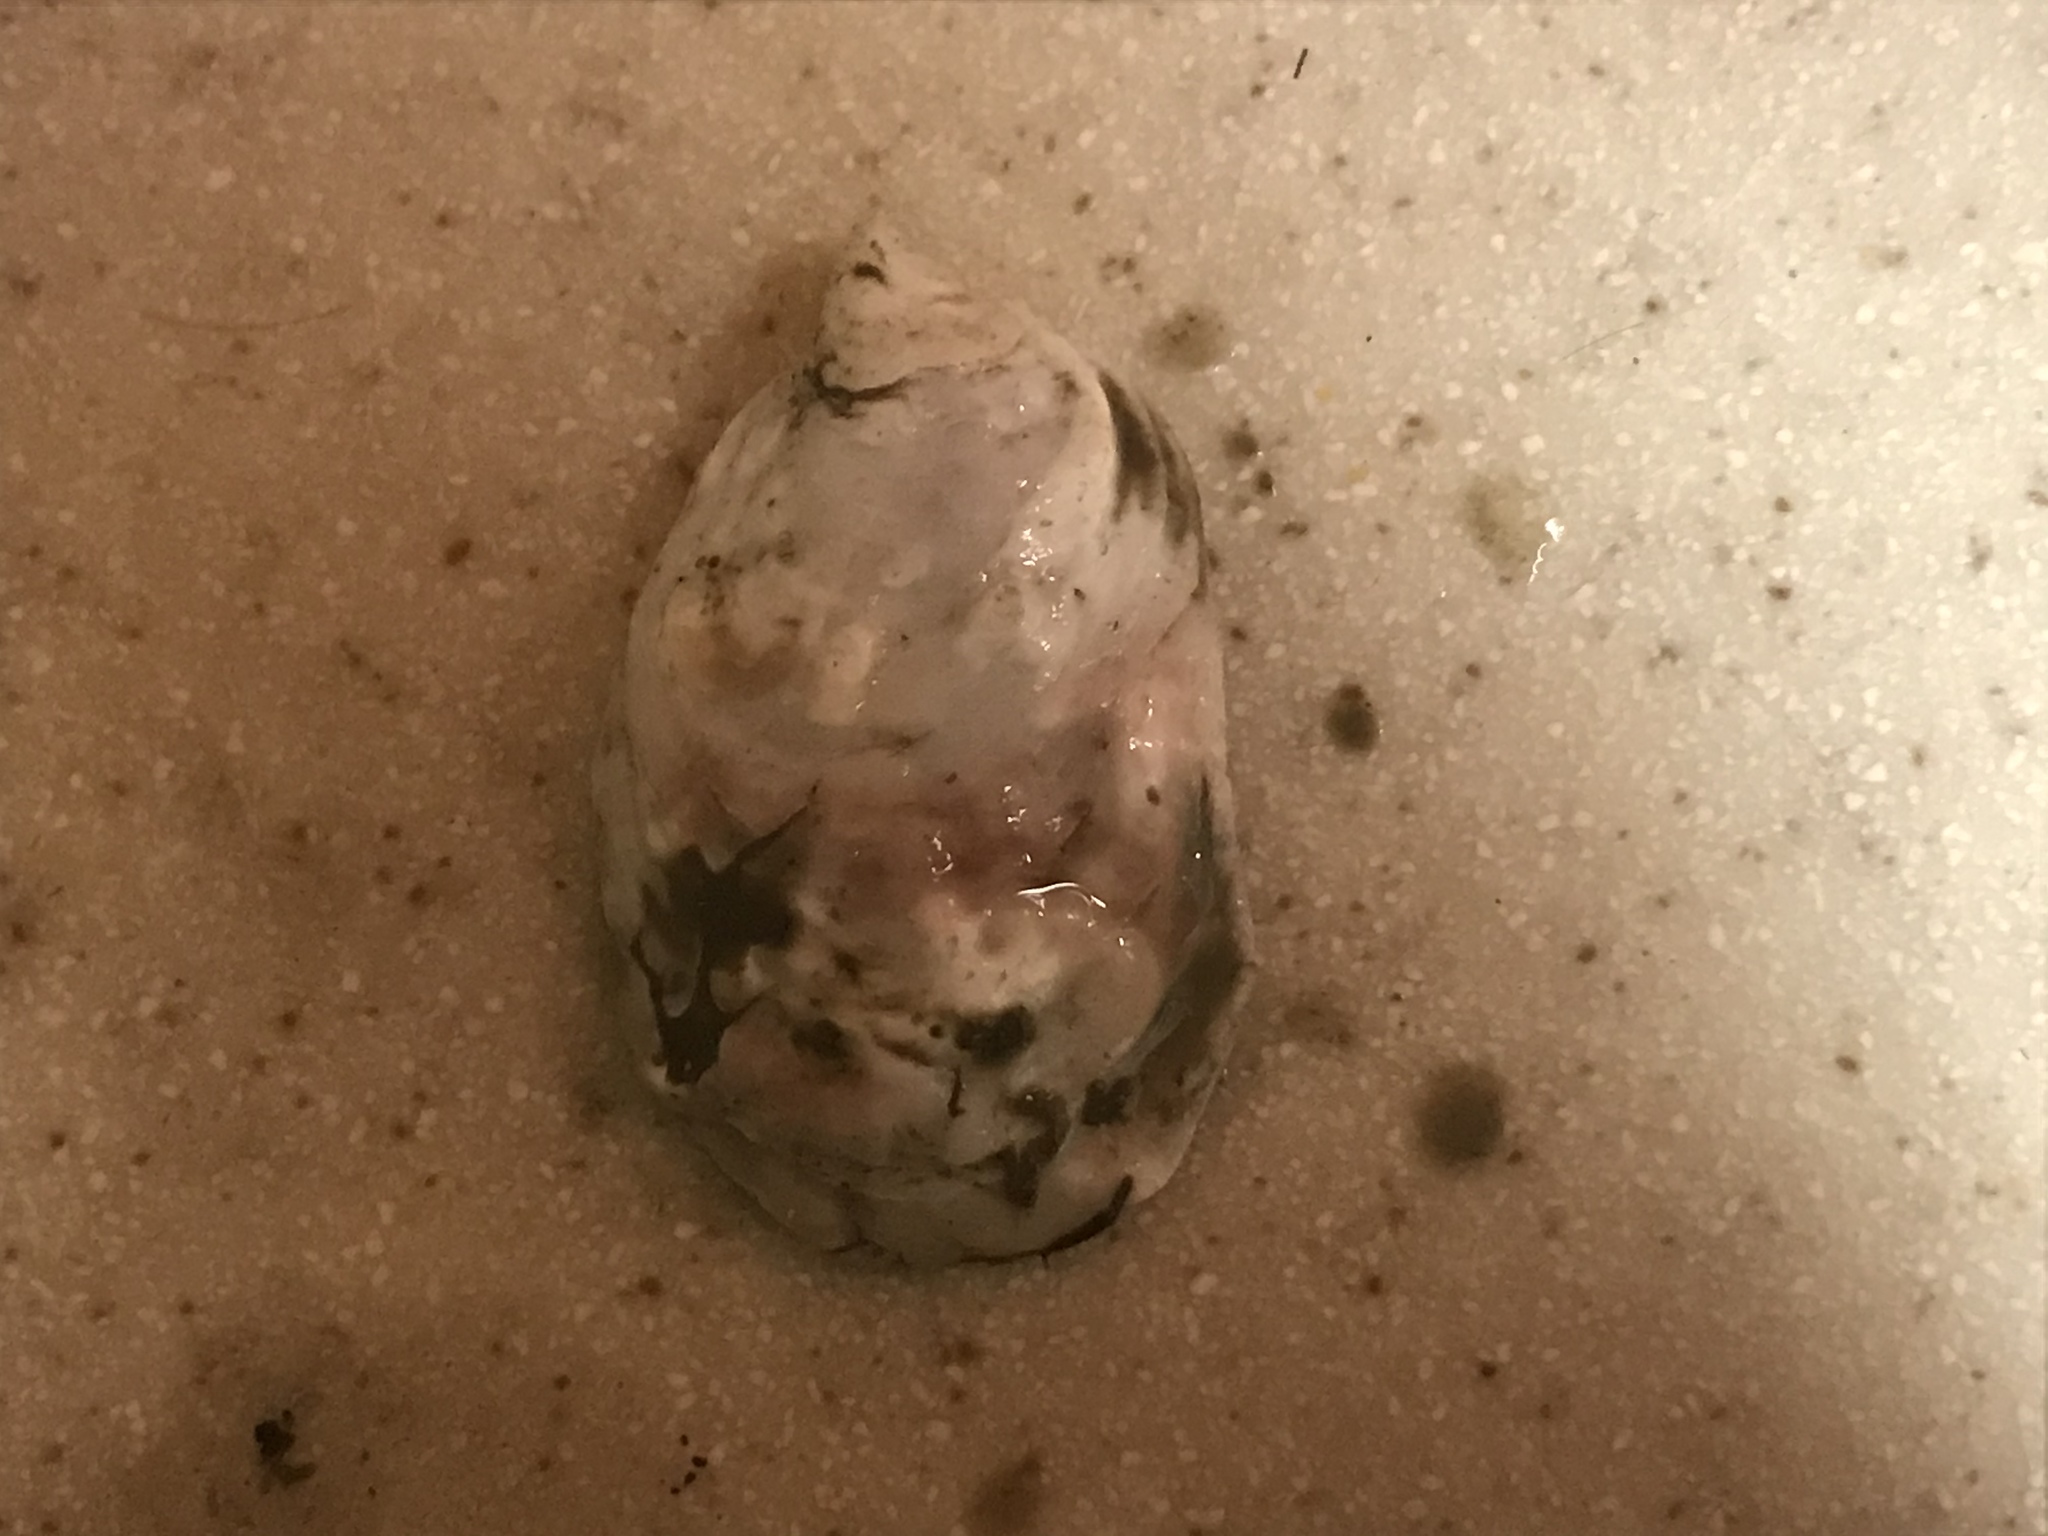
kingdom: Animalia
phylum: Mollusca
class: Bivalvia
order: Ostreida
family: Ostreidae
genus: Ostrea
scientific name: Ostrea lurida
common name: Olympia flat oyster
